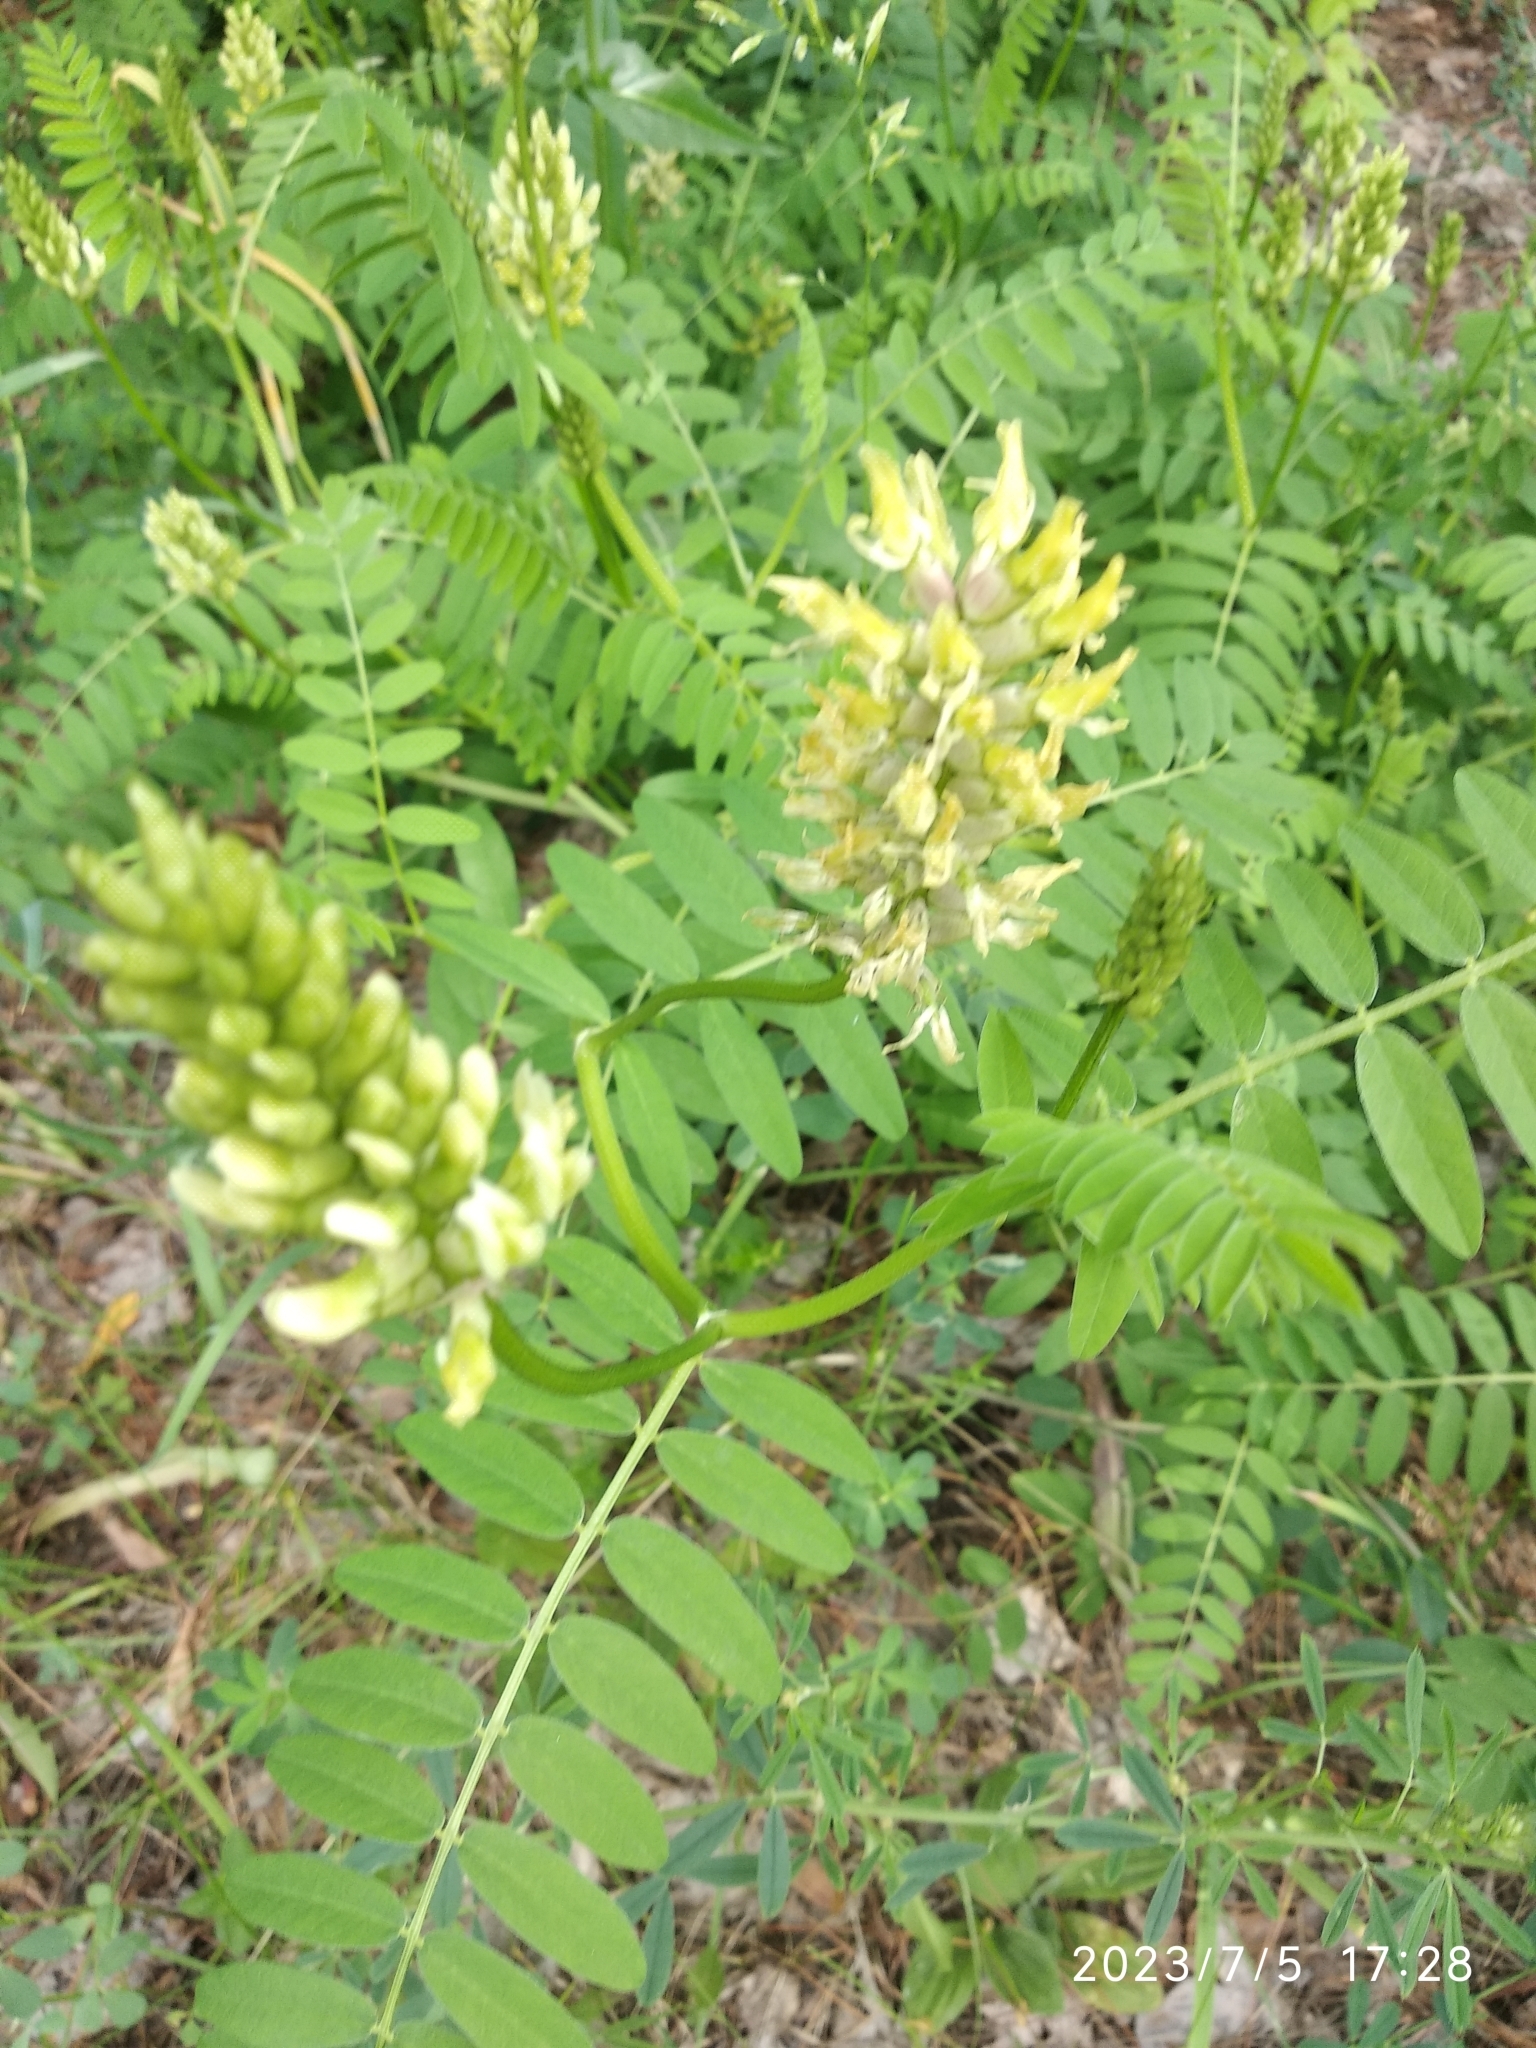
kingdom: Plantae
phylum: Tracheophyta
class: Magnoliopsida
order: Fabales
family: Fabaceae
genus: Astragalus
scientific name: Astragalus cicer
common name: Chick-pea milk-vetch
